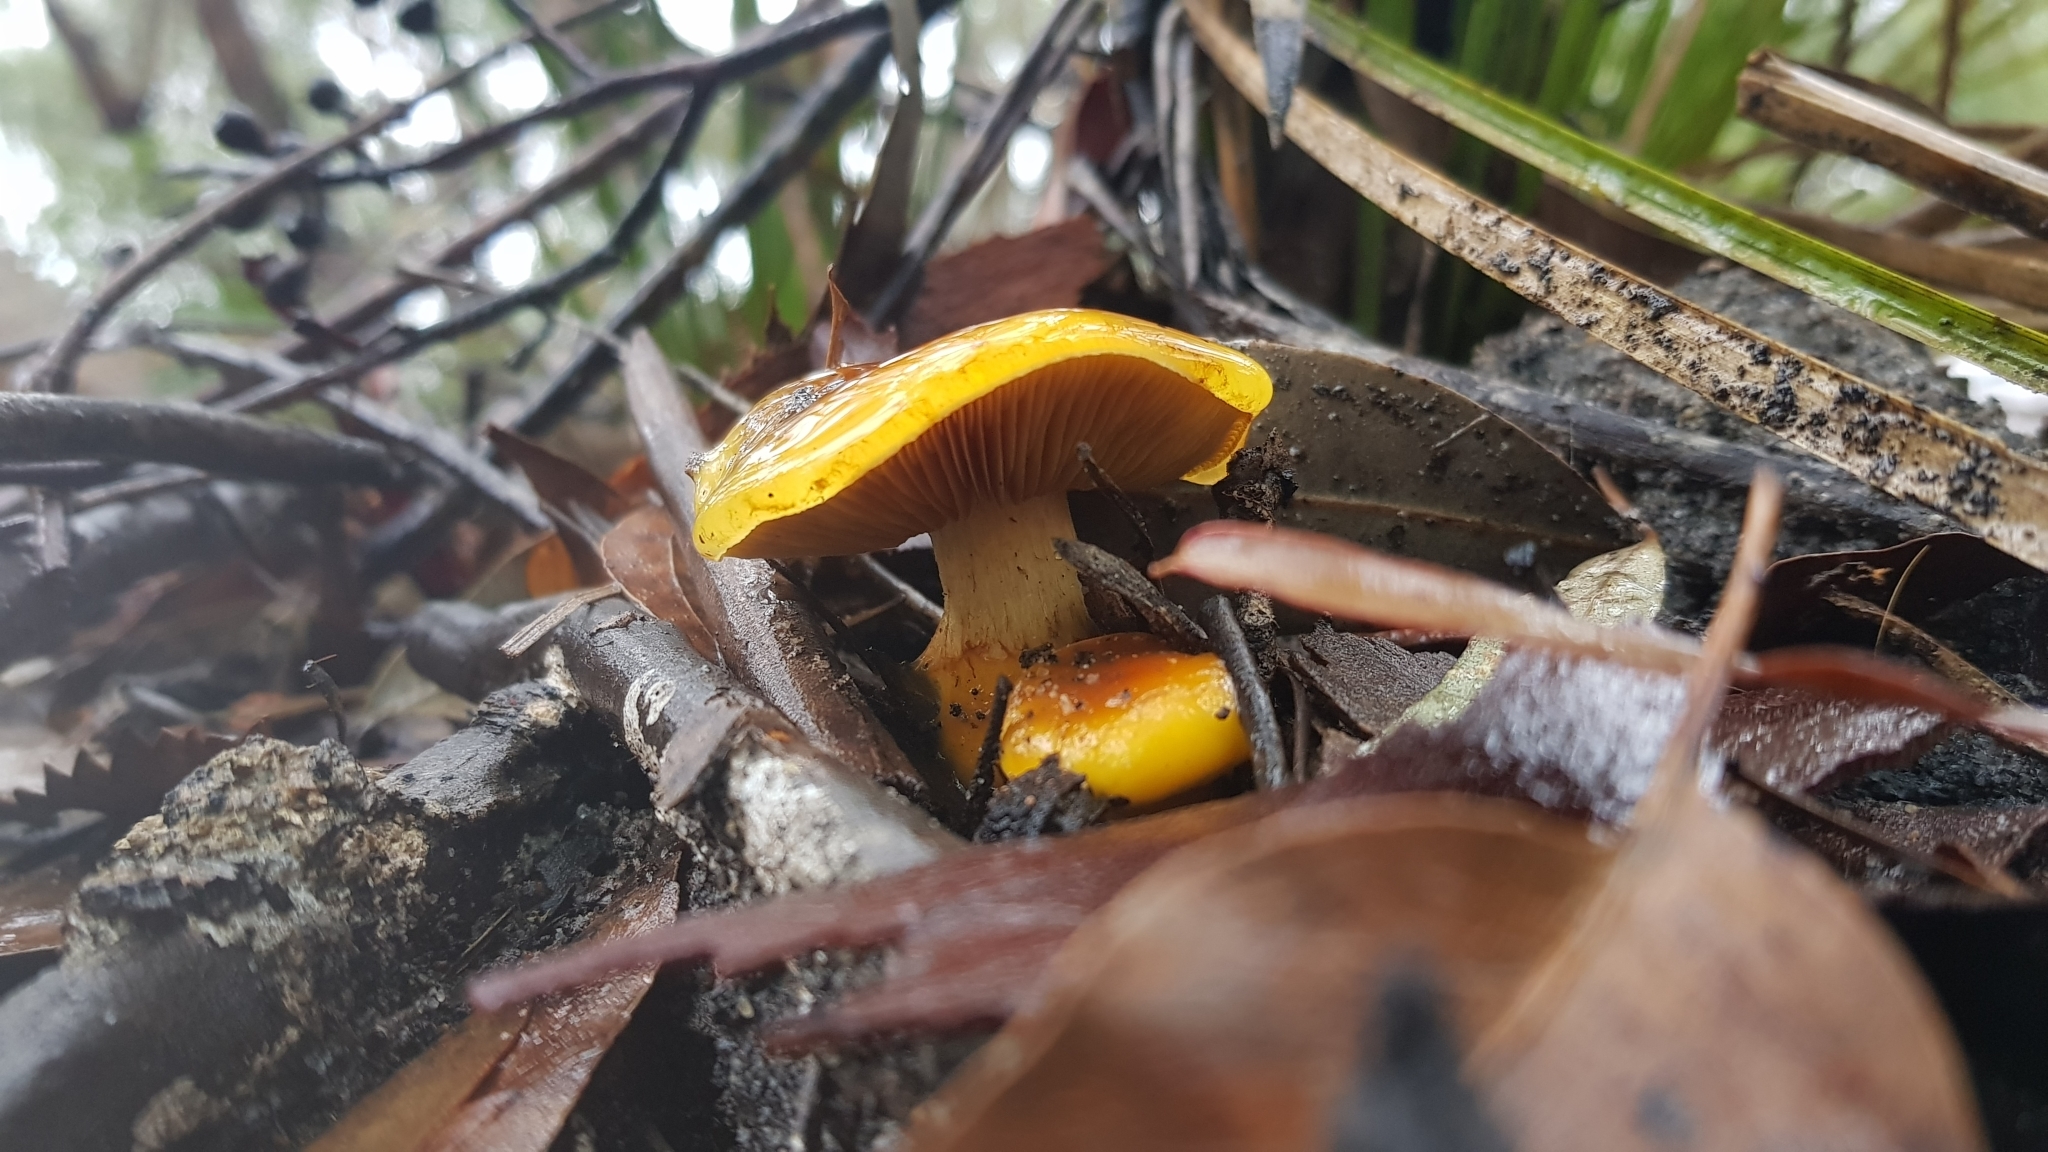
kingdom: Fungi
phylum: Basidiomycota
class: Agaricomycetes
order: Agaricales
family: Cortinariaceae
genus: Cortinarius
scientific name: Cortinarius sinapicolor
